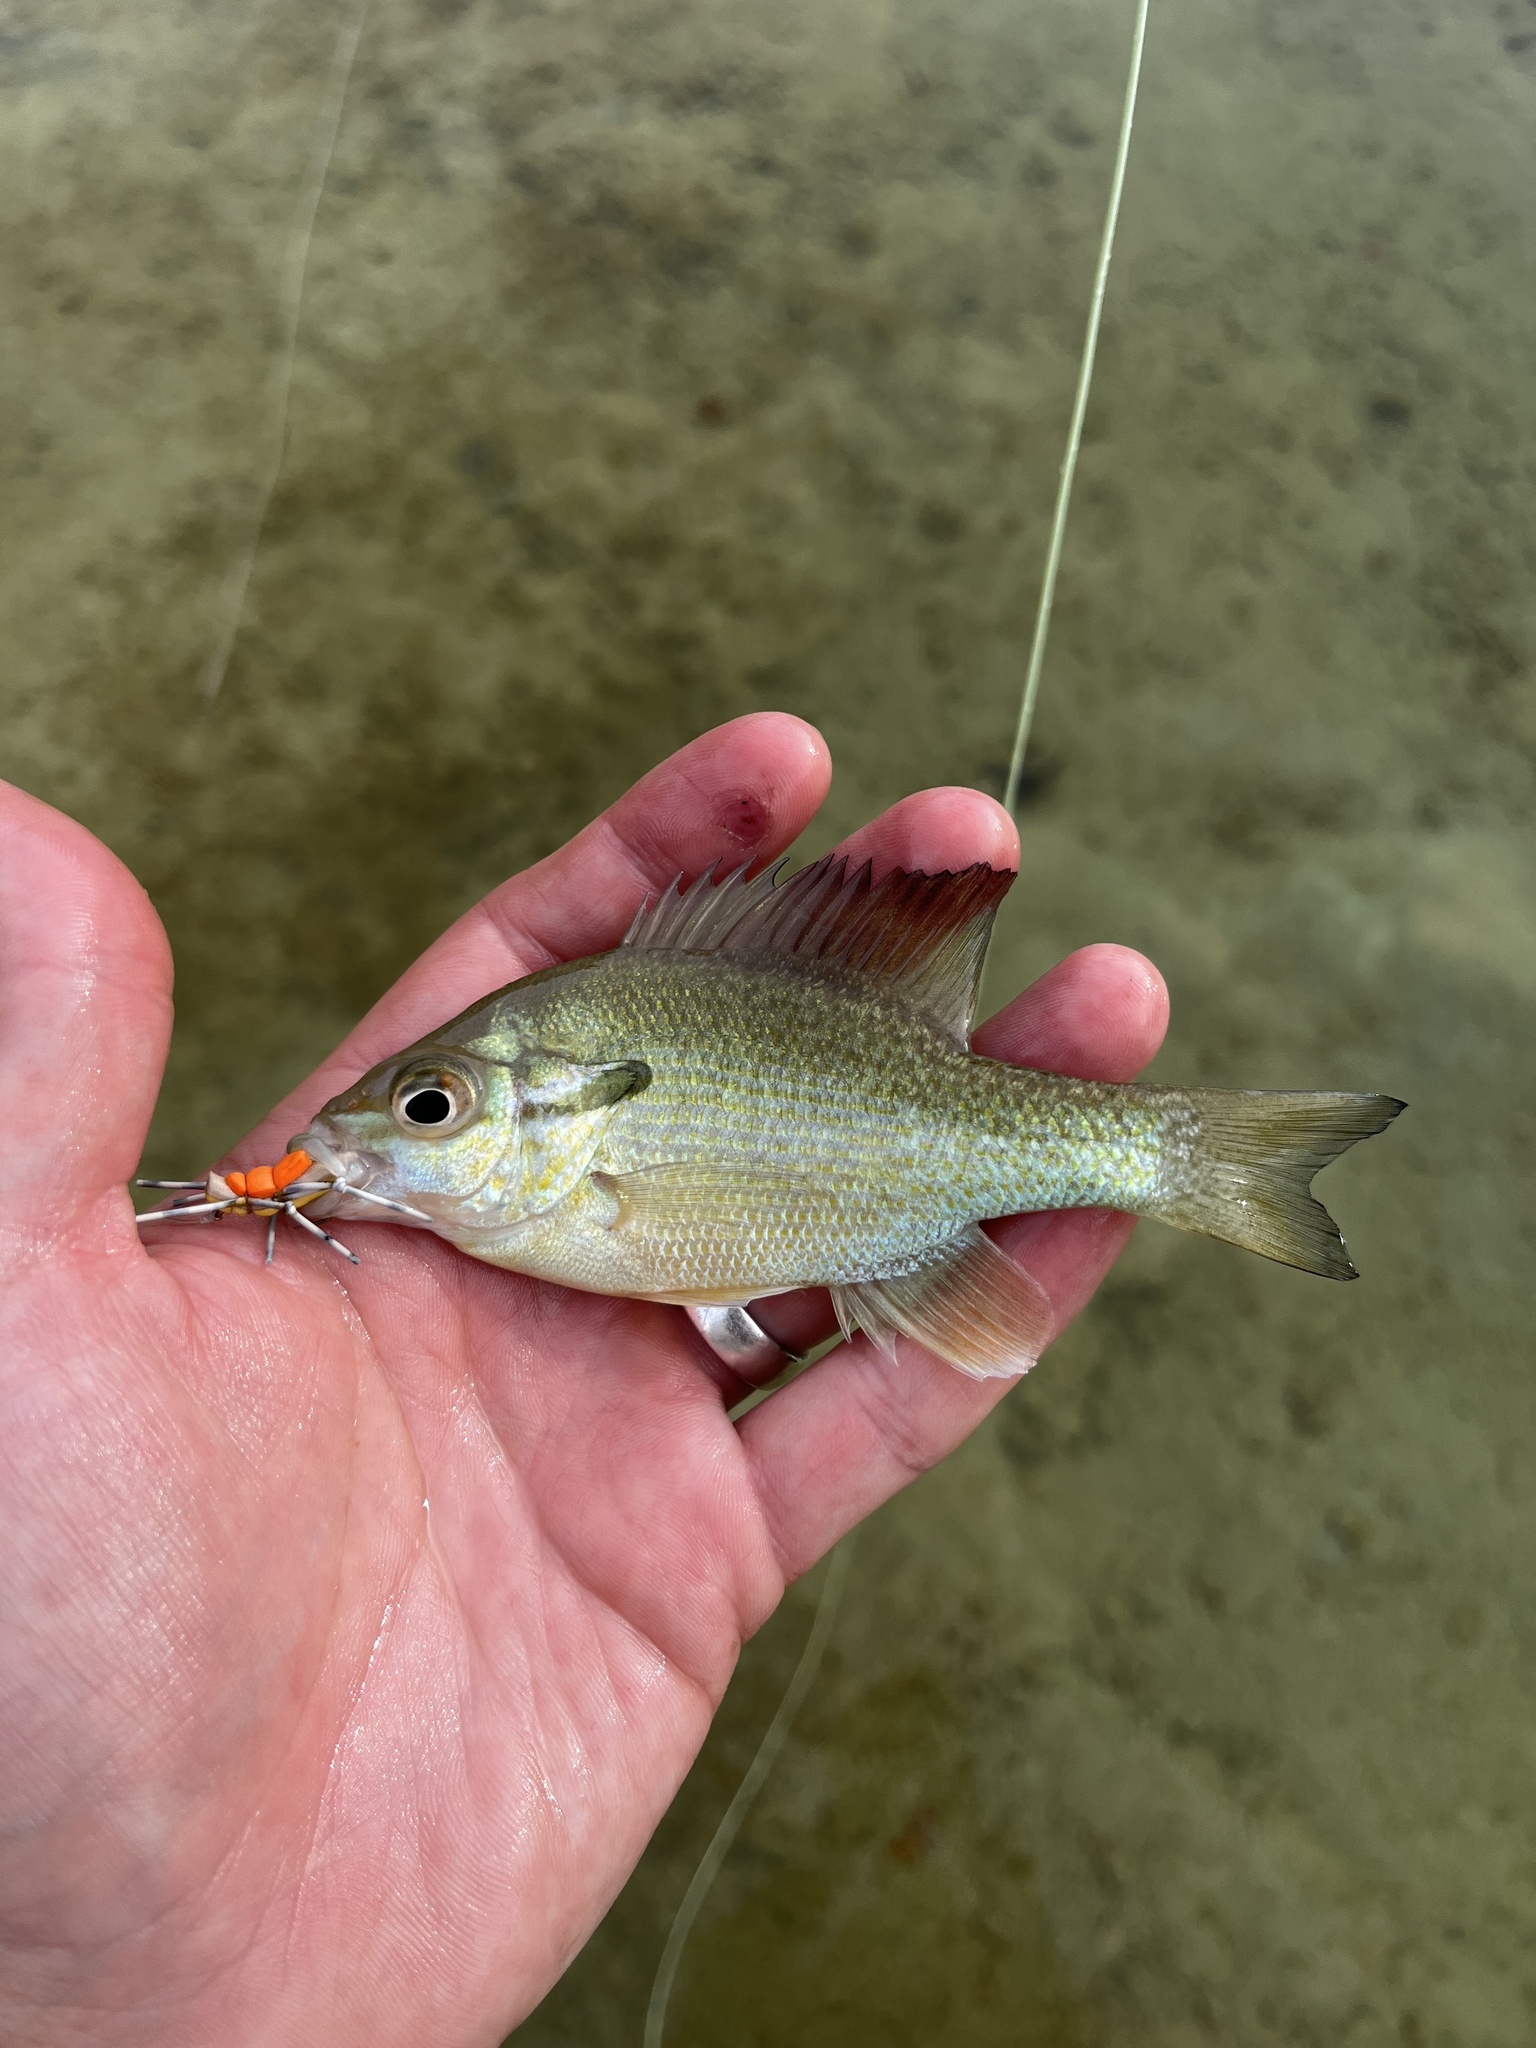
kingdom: Animalia
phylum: Chordata
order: Perciformes
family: Centrarchidae
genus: Lepomis
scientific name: Lepomis auritus
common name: Redbreast sunfish
